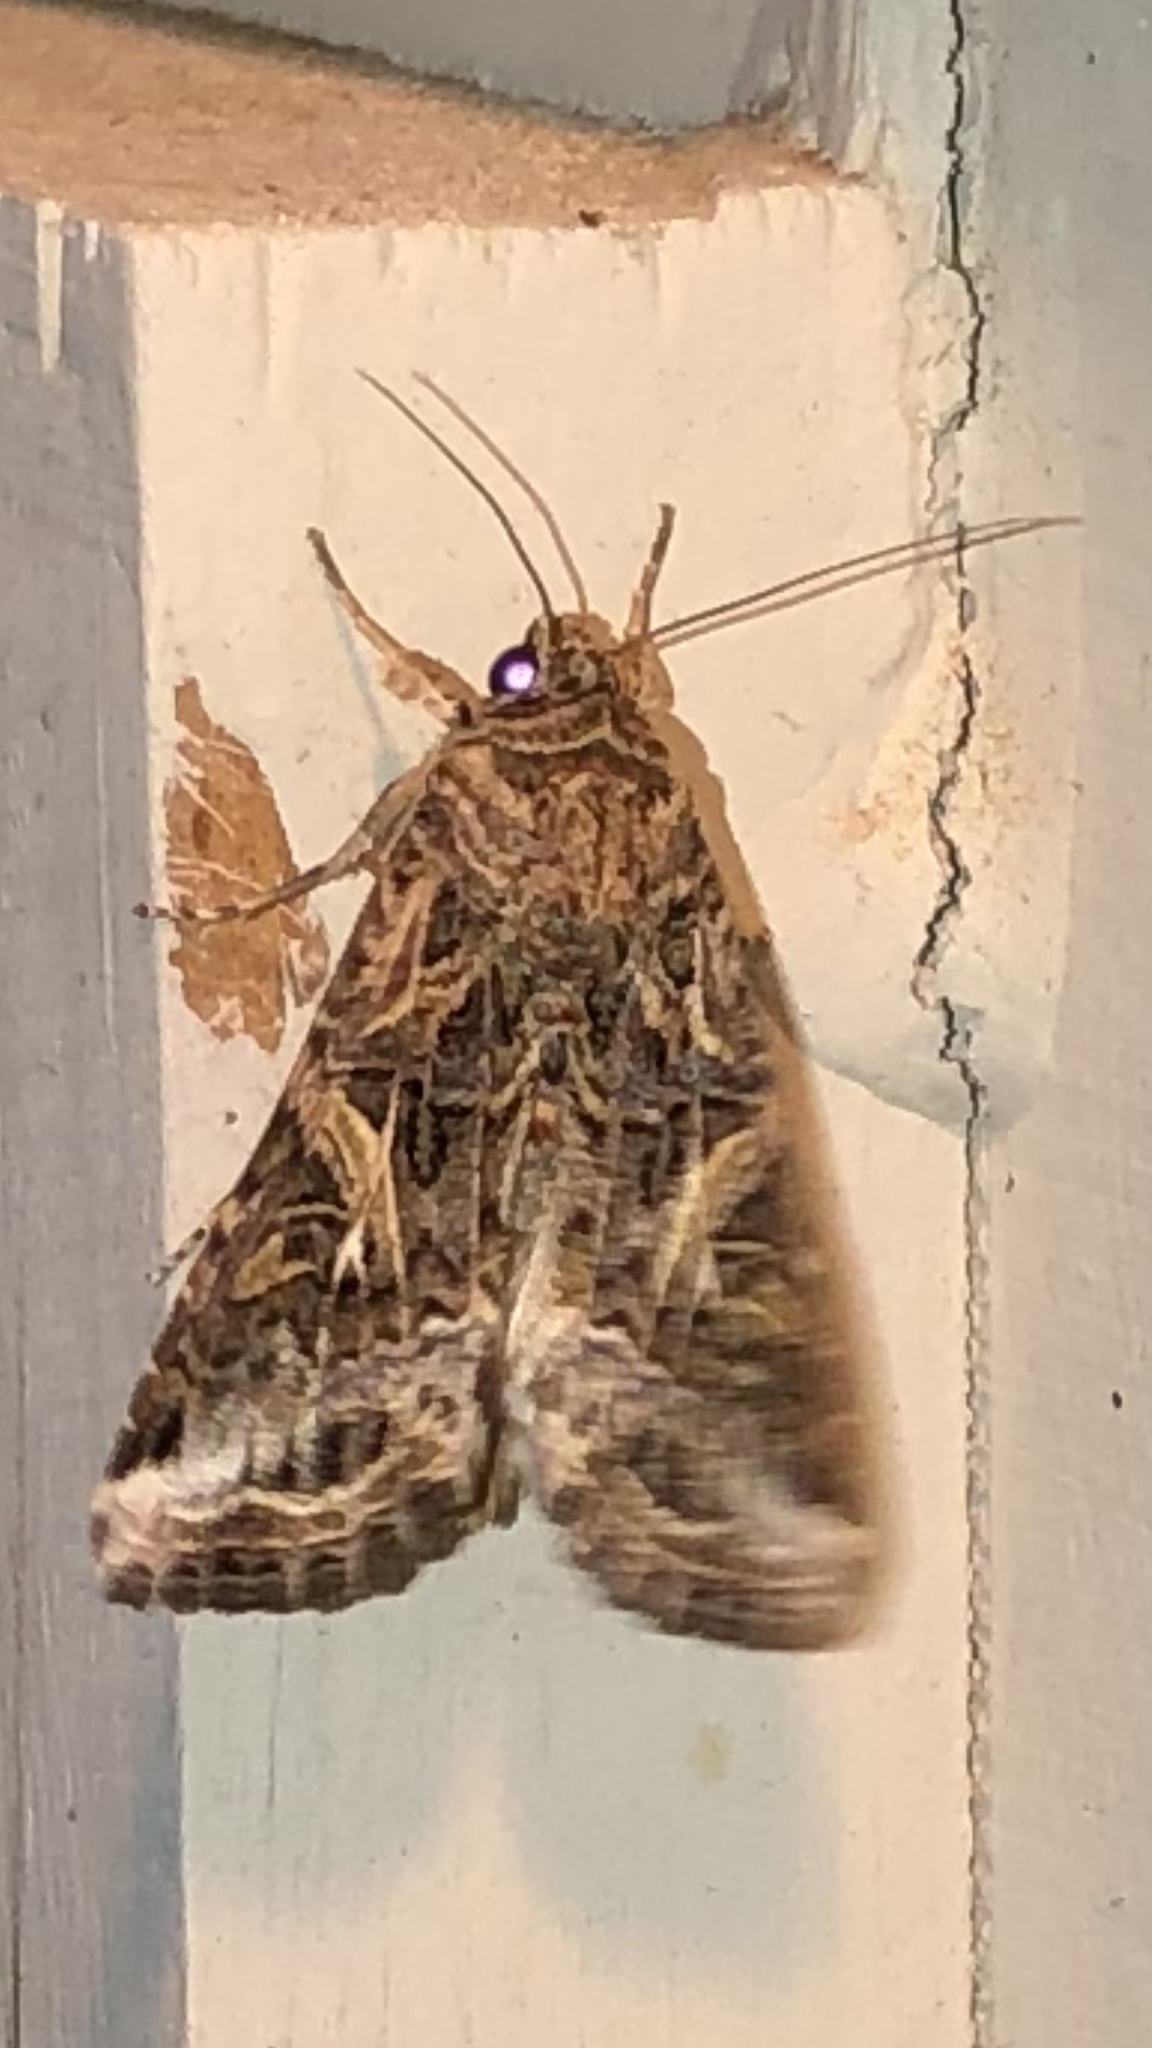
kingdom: Animalia
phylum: Arthropoda
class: Insecta
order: Lepidoptera
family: Noctuidae
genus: Spodoptera
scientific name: Spodoptera ornithogalli
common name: Yellow-striped armyworm
